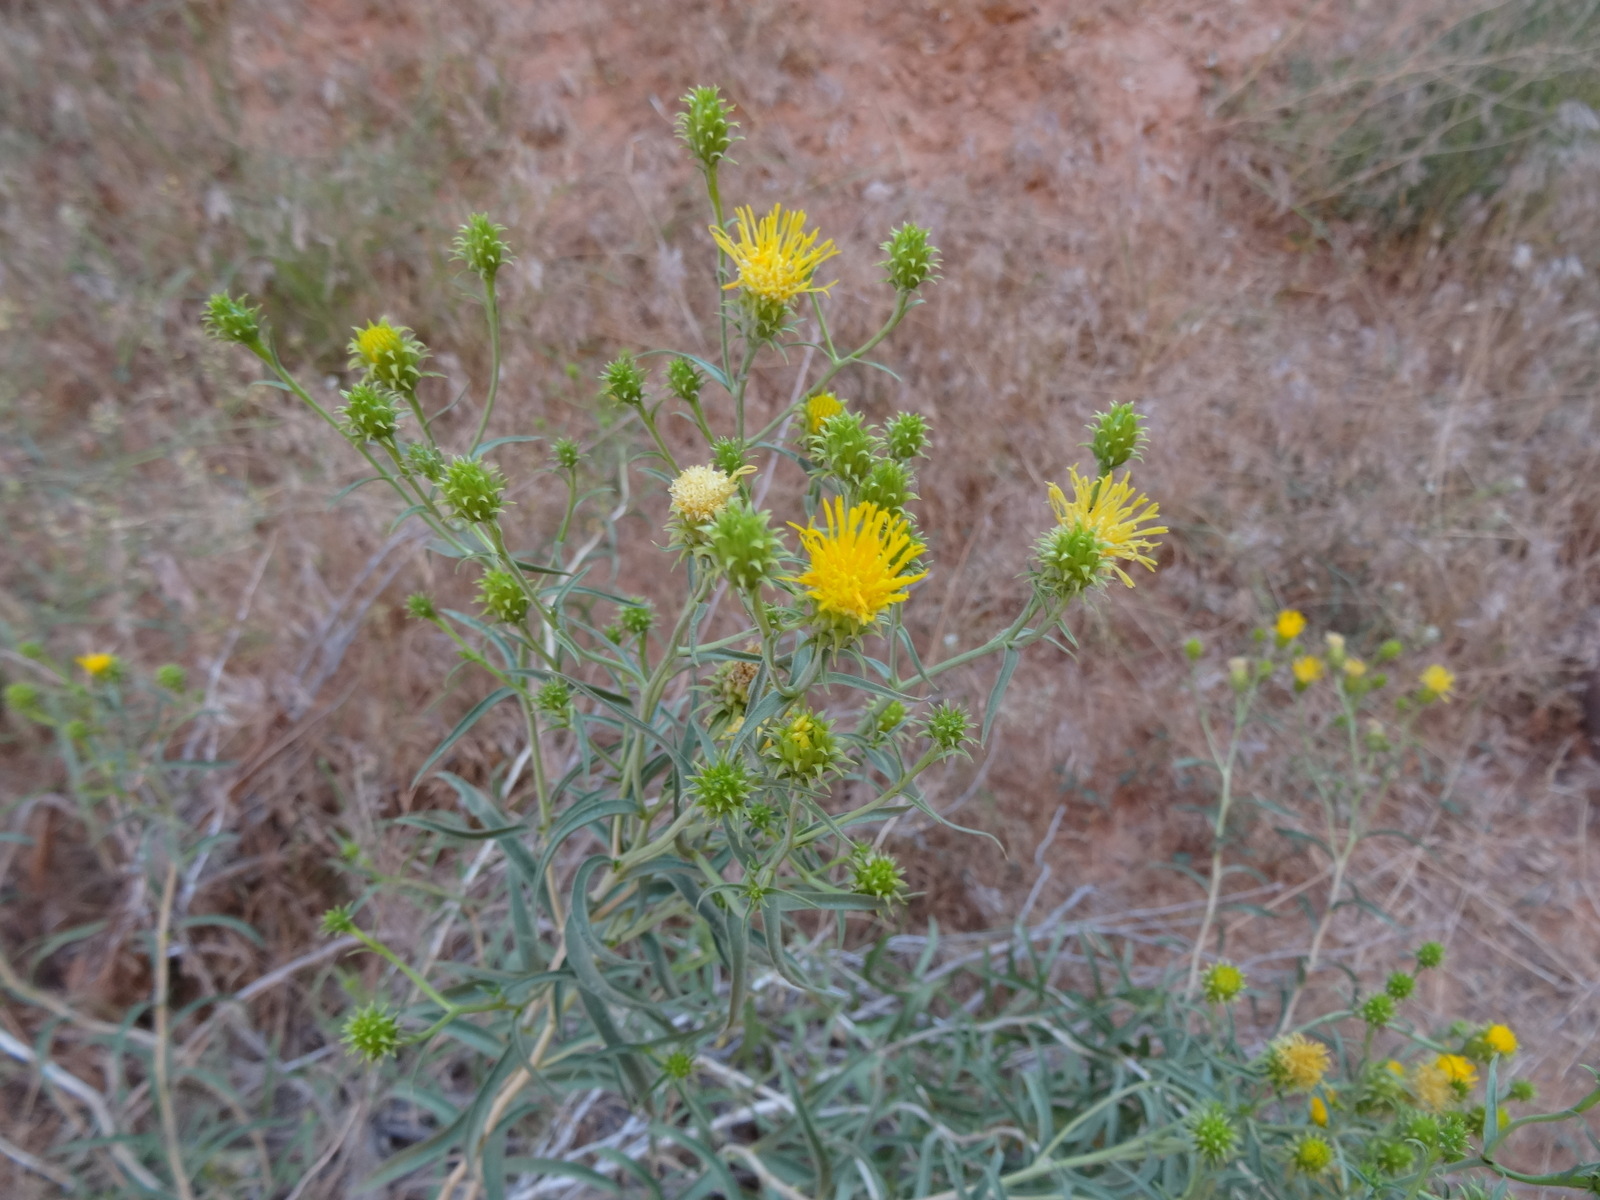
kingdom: Plantae
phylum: Tracheophyta
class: Magnoliopsida
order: Asterales
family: Asteraceae
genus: Chrysothamnus
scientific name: Chrysothamnus stylosus
